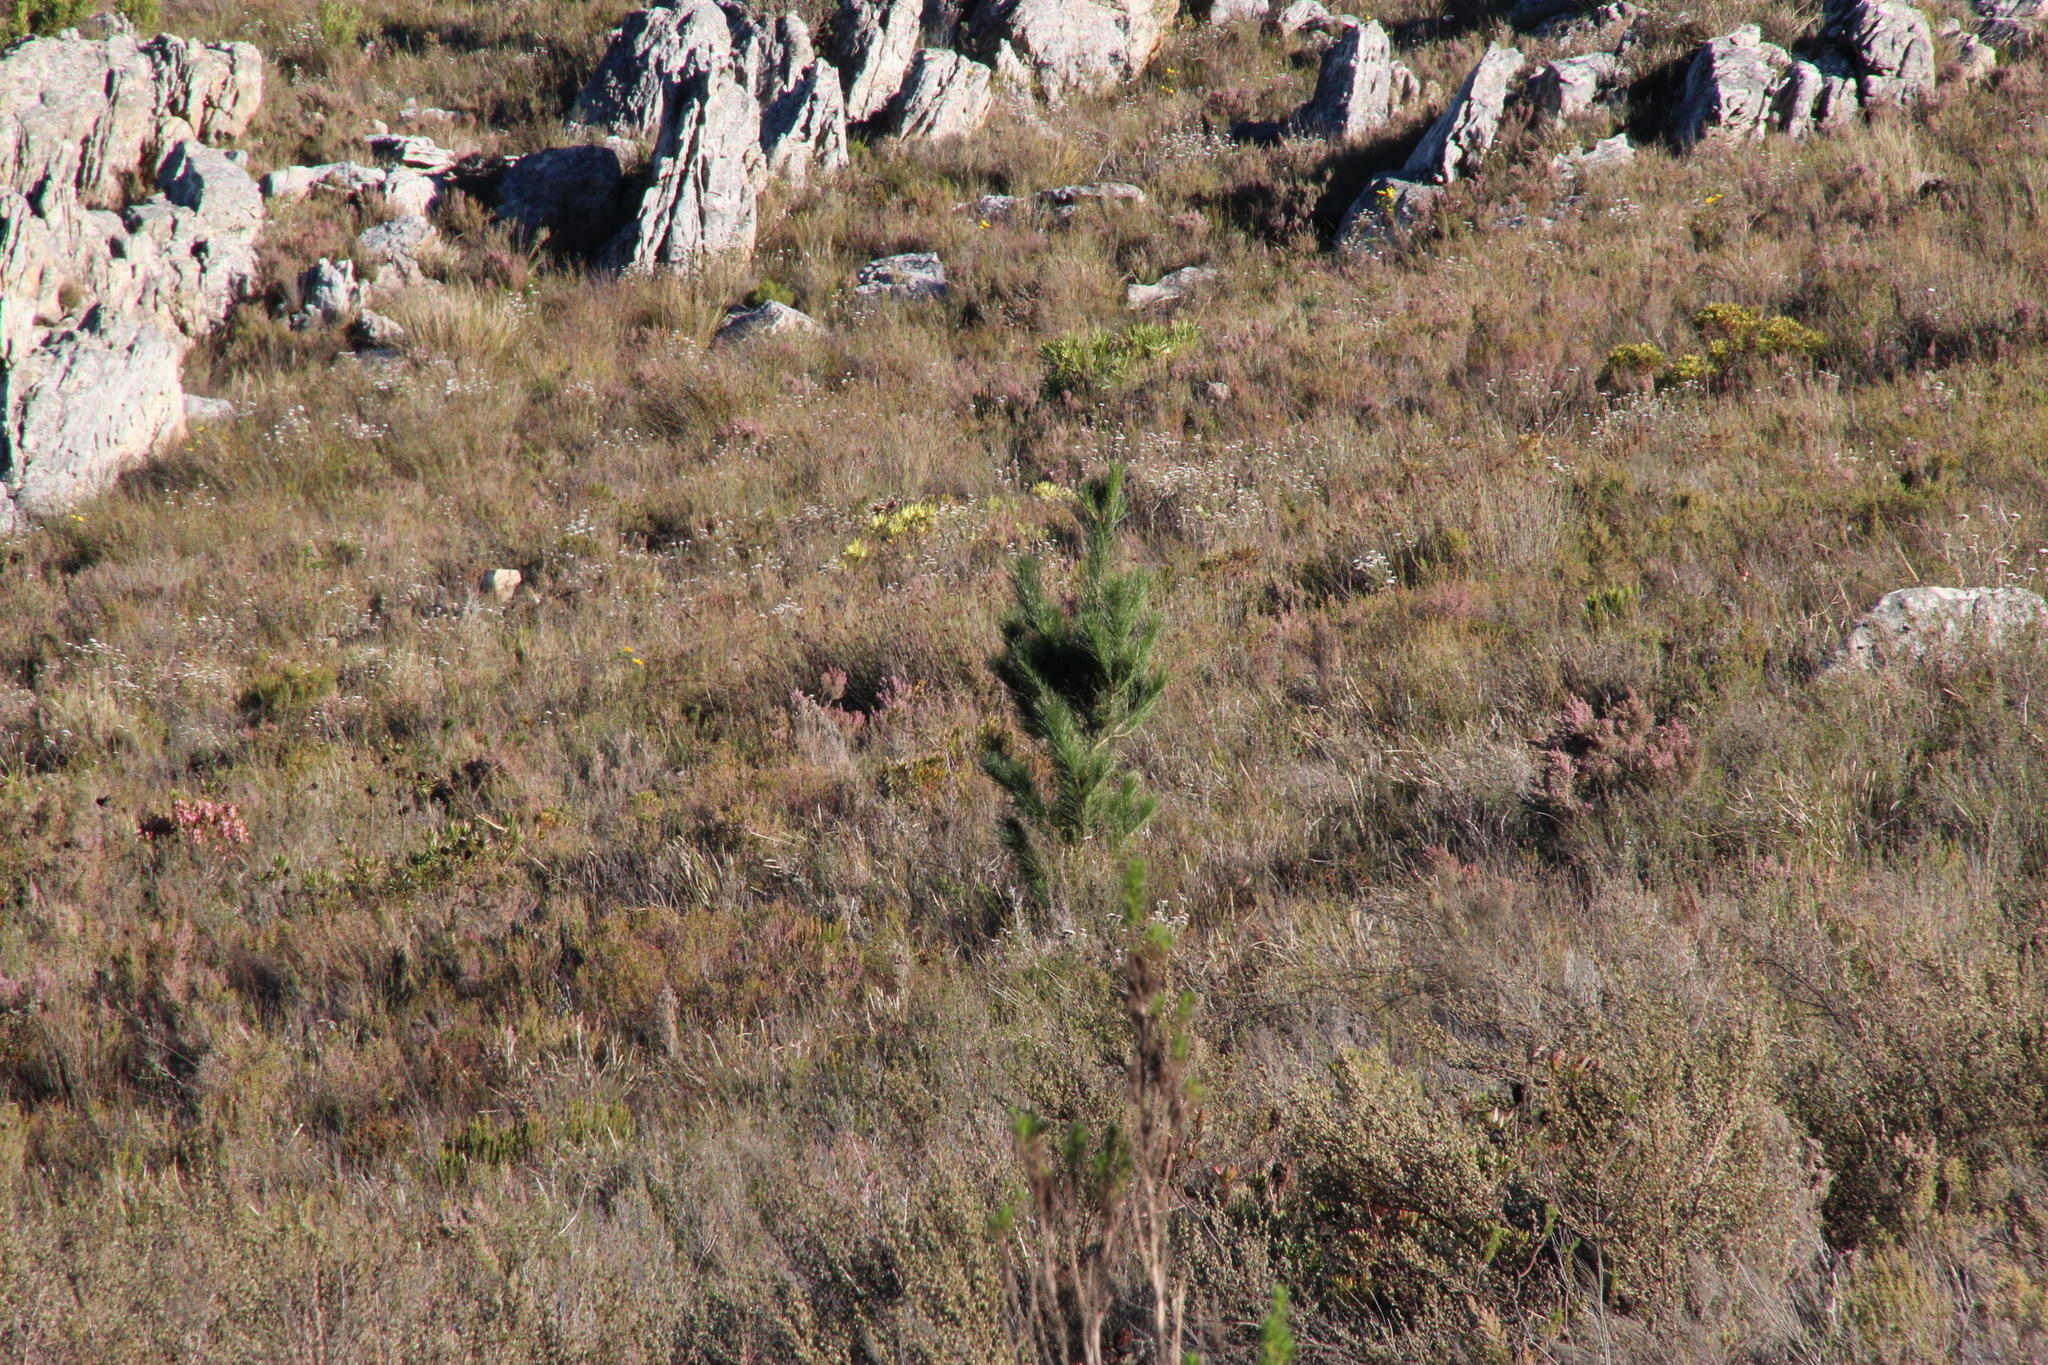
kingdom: Plantae
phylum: Tracheophyta
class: Pinopsida
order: Pinales
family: Pinaceae
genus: Pinus
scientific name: Pinus radiata
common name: Monterey pine
